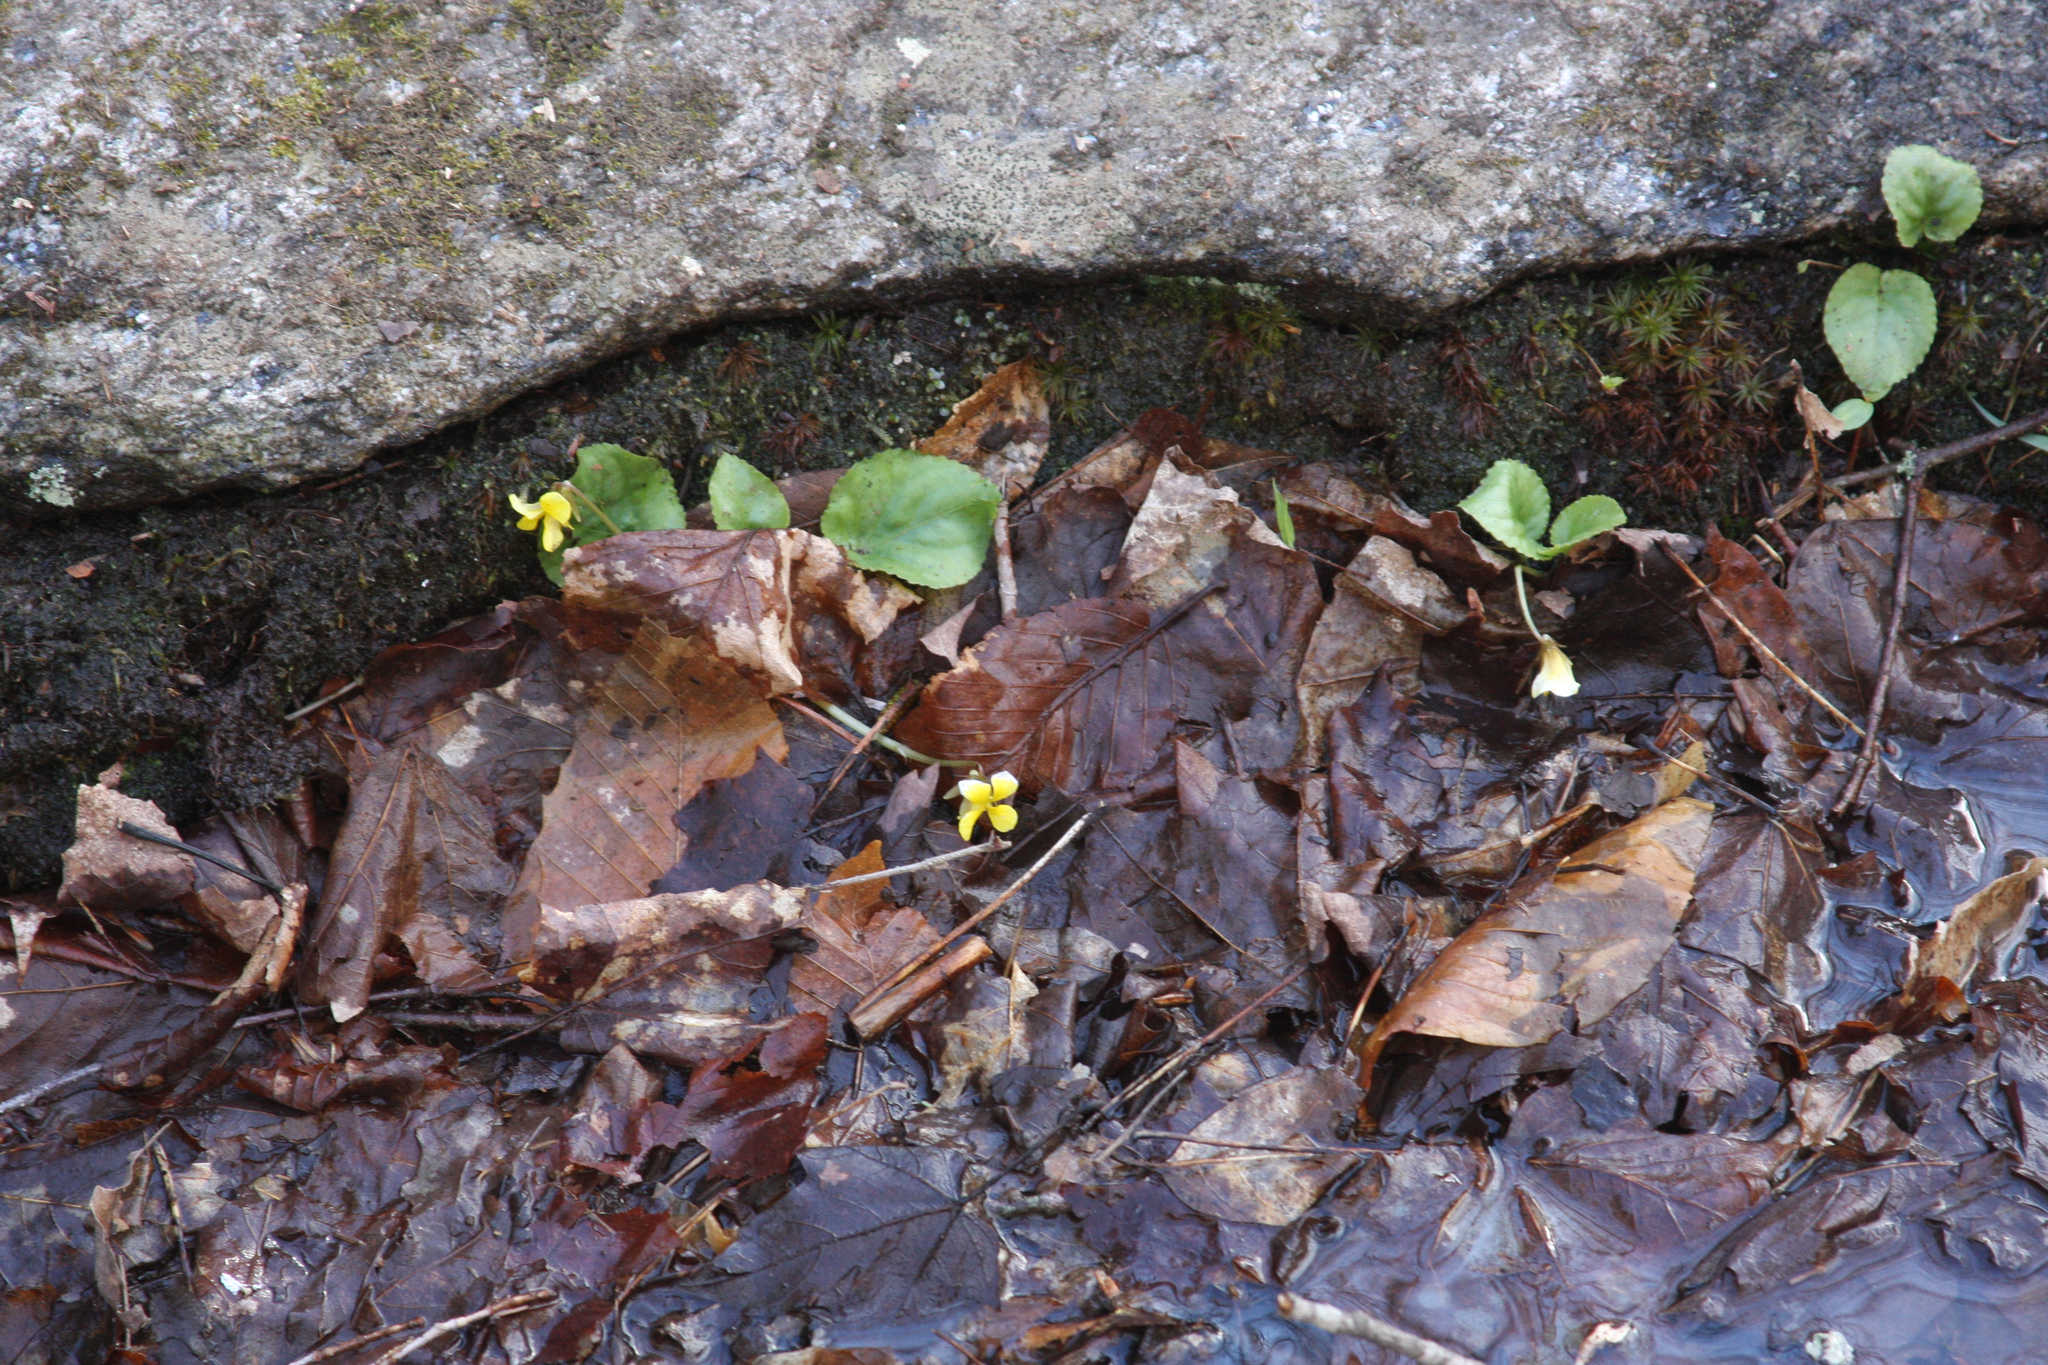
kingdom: Plantae
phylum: Tracheophyta
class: Magnoliopsida
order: Malpighiales
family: Violaceae
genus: Viola
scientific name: Viola rotundifolia
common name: Early yellow violet
